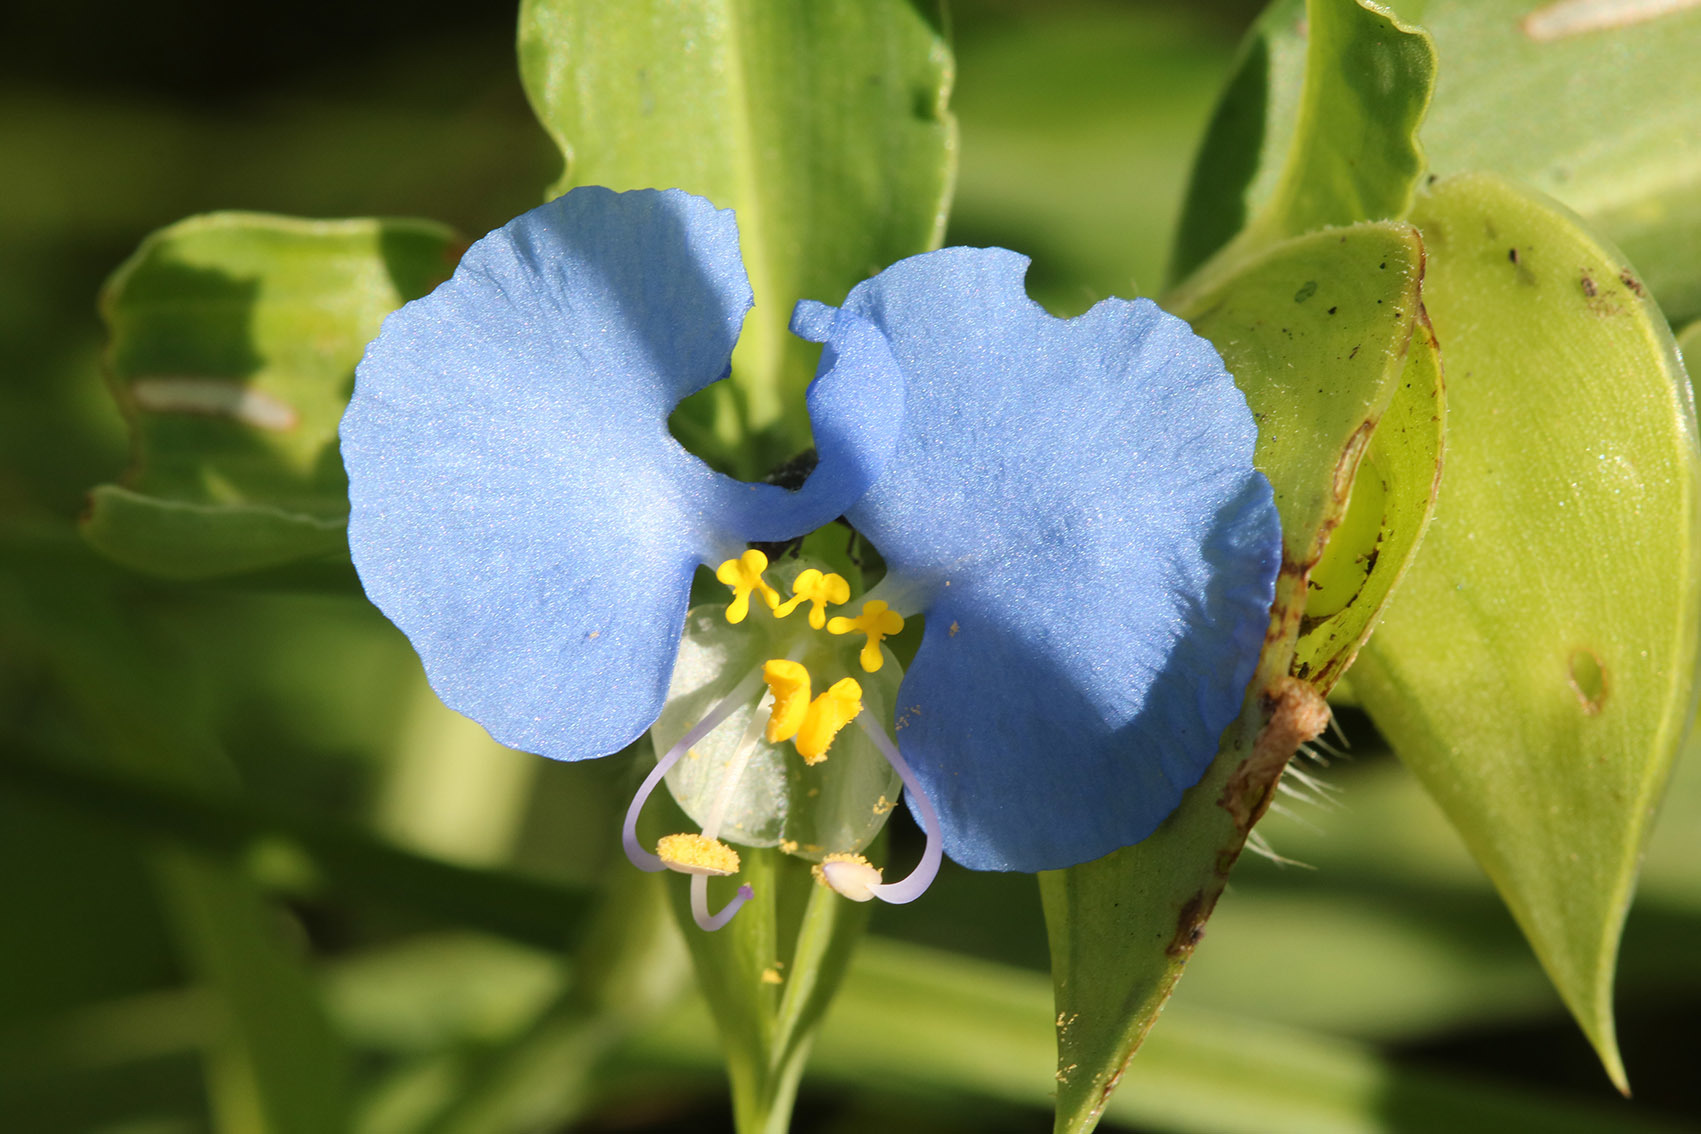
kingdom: Plantae
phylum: Tracheophyta
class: Liliopsida
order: Commelinales
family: Commelinaceae
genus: Commelina
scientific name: Commelina erecta
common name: Blousel blommetjie
